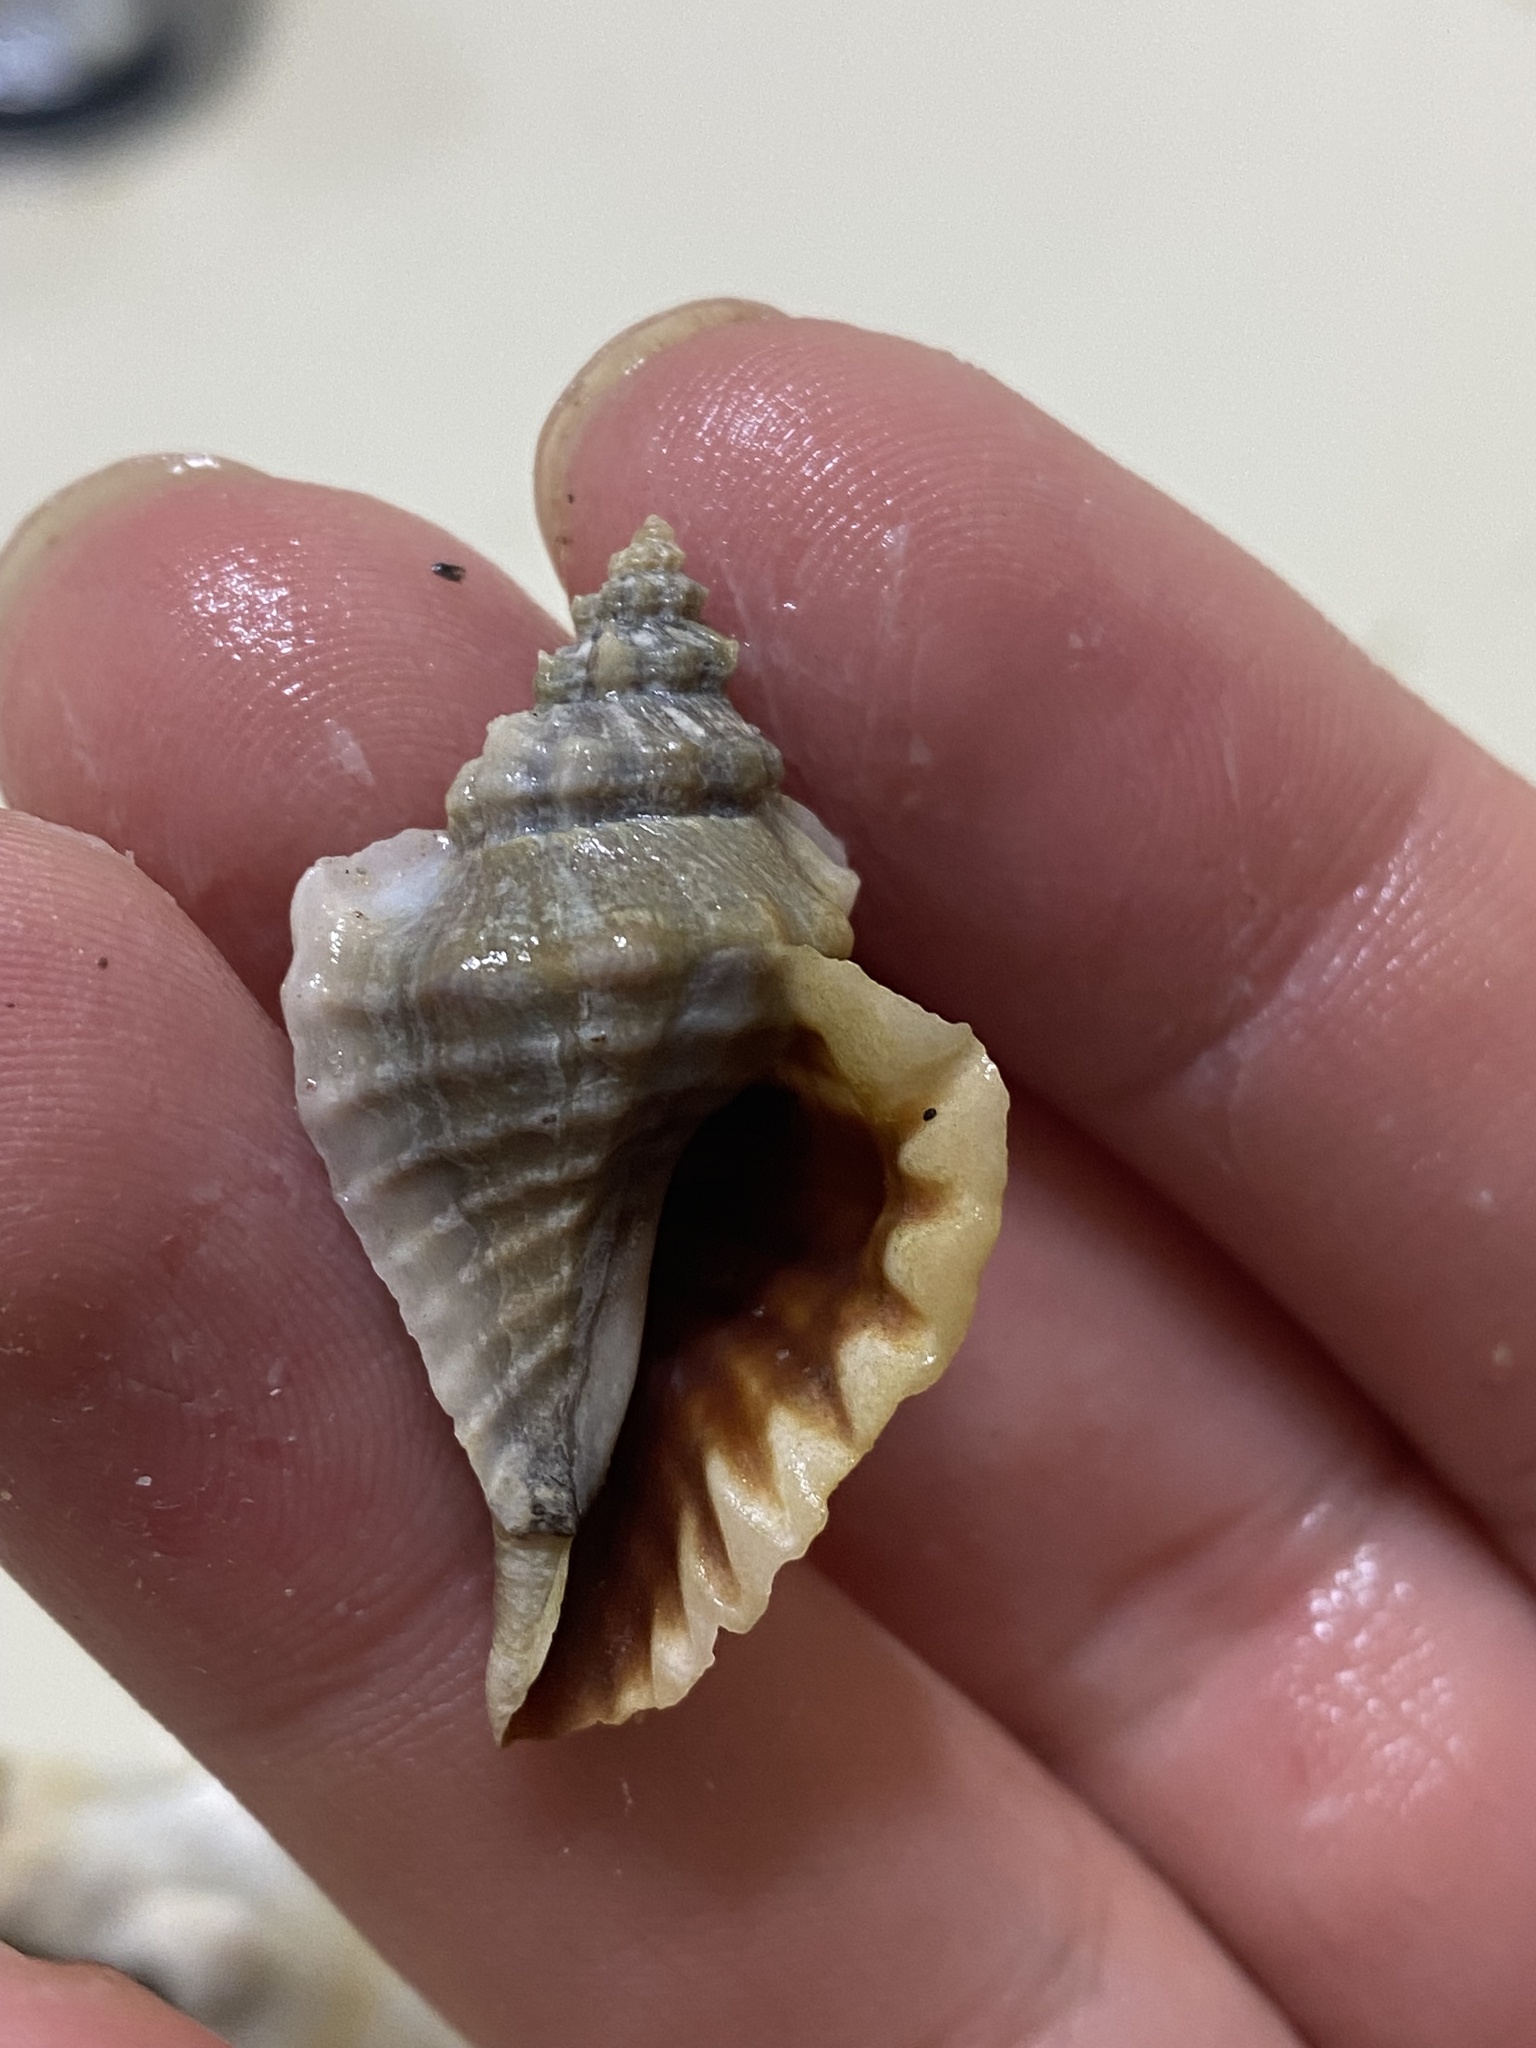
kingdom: Animalia
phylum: Mollusca
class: Gastropoda
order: Neogastropoda
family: Muricidae
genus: Eupleura
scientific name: Eupleura muriciformis
